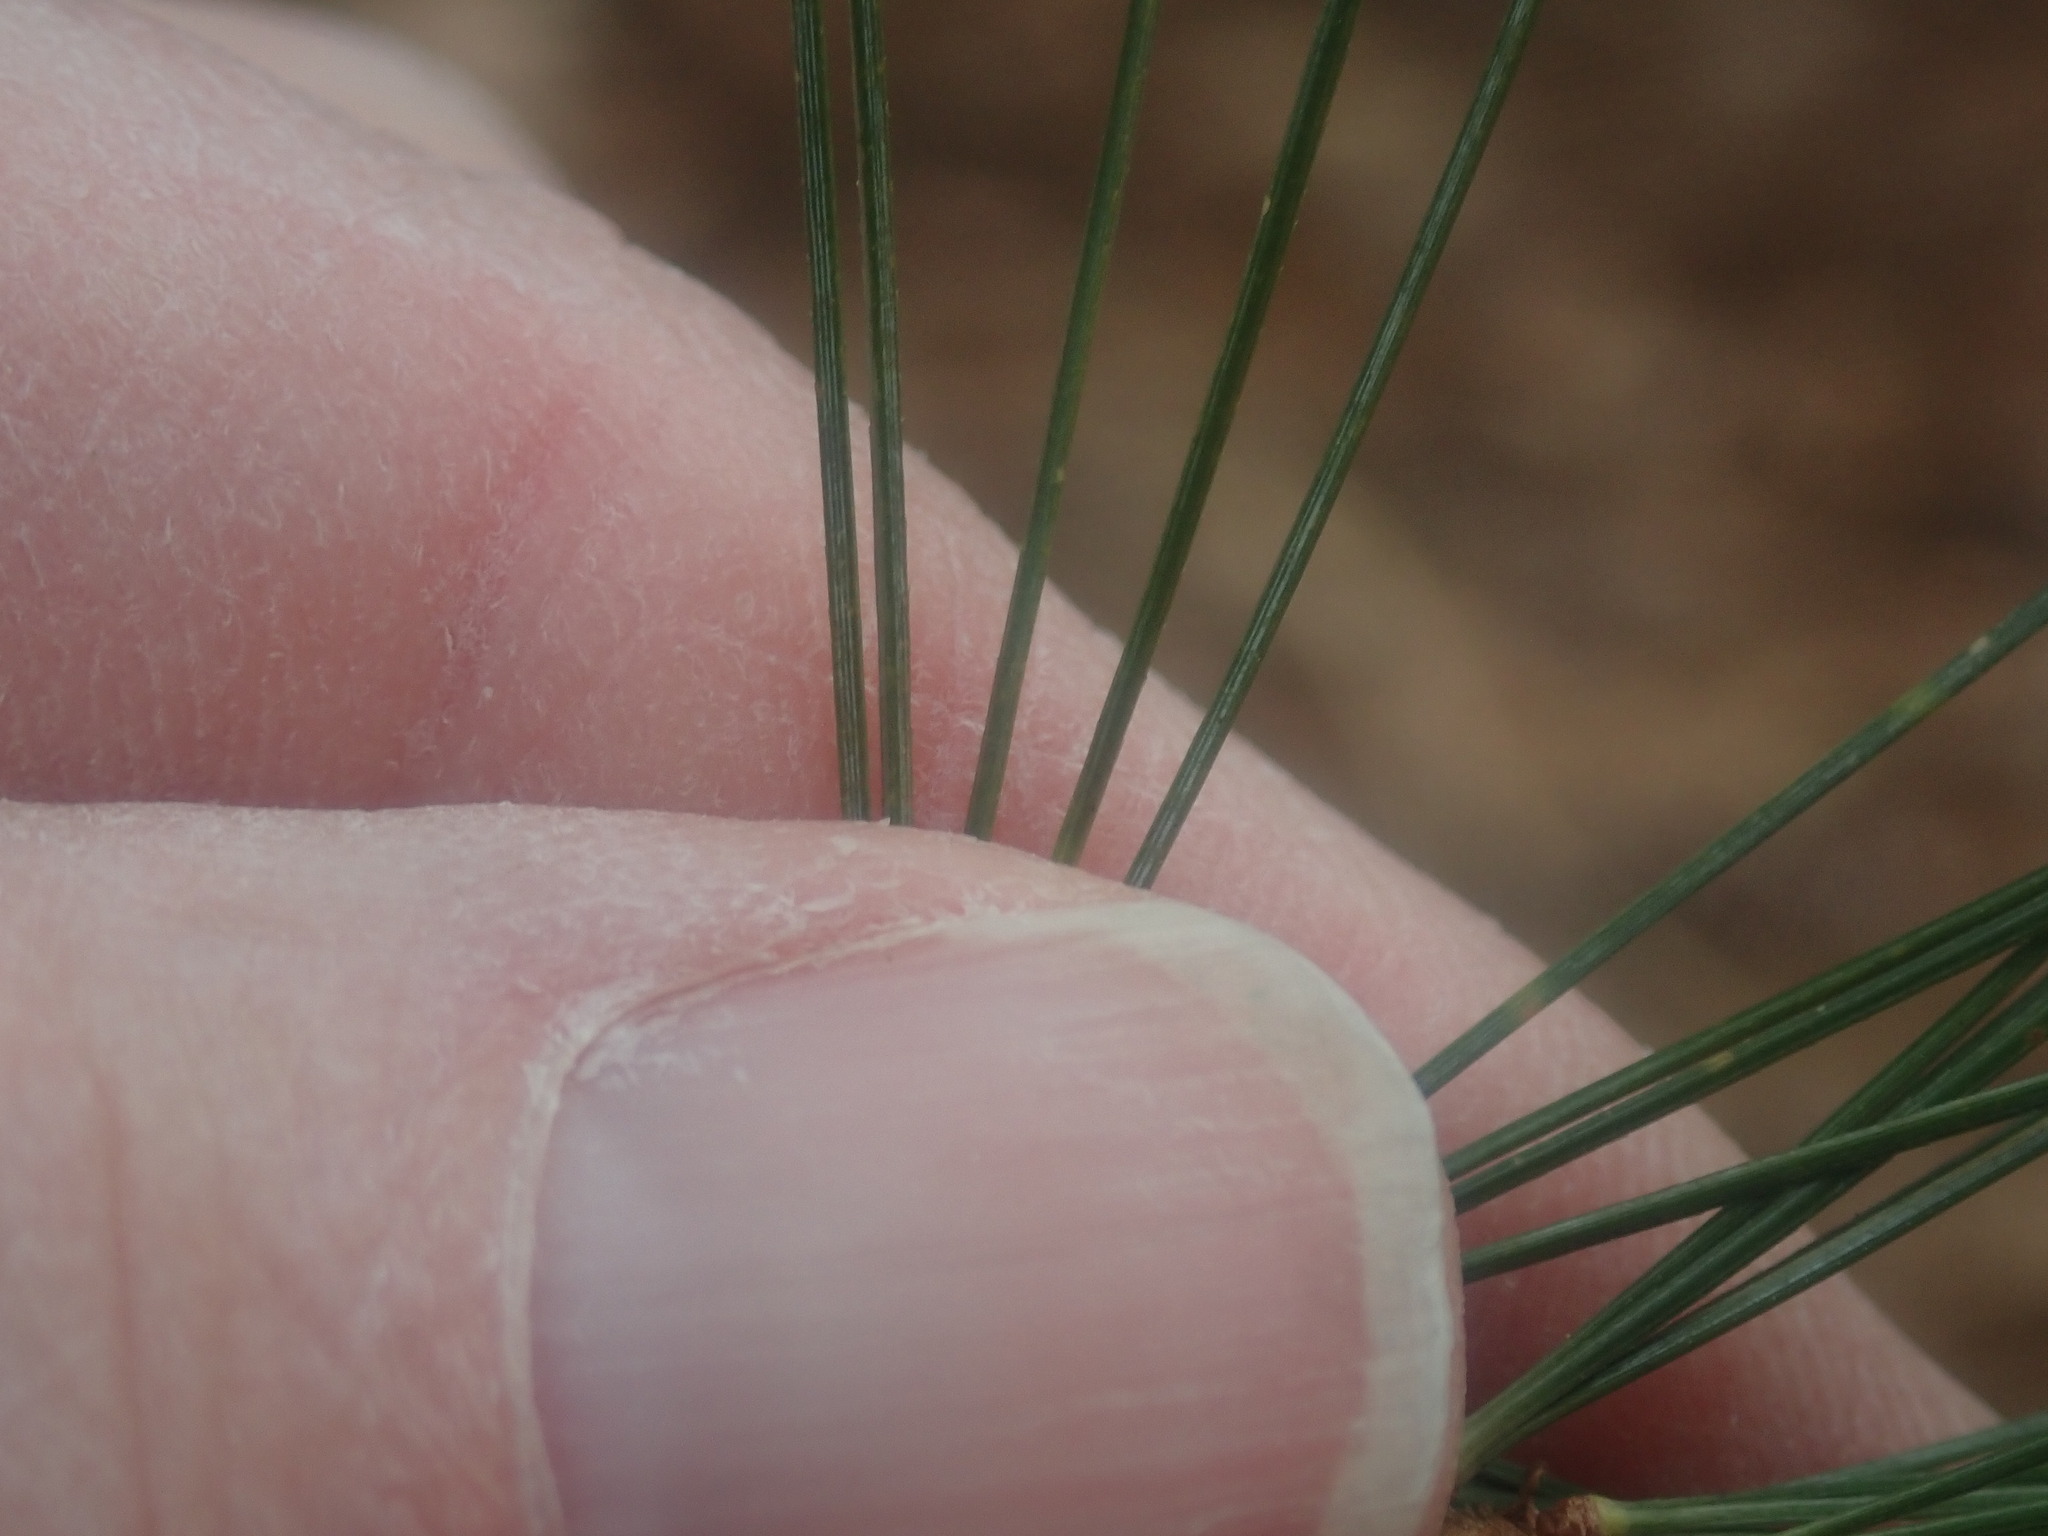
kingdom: Plantae
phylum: Tracheophyta
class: Pinopsida
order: Pinales
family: Pinaceae
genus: Pinus
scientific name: Pinus strobus
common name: Weymouth pine
